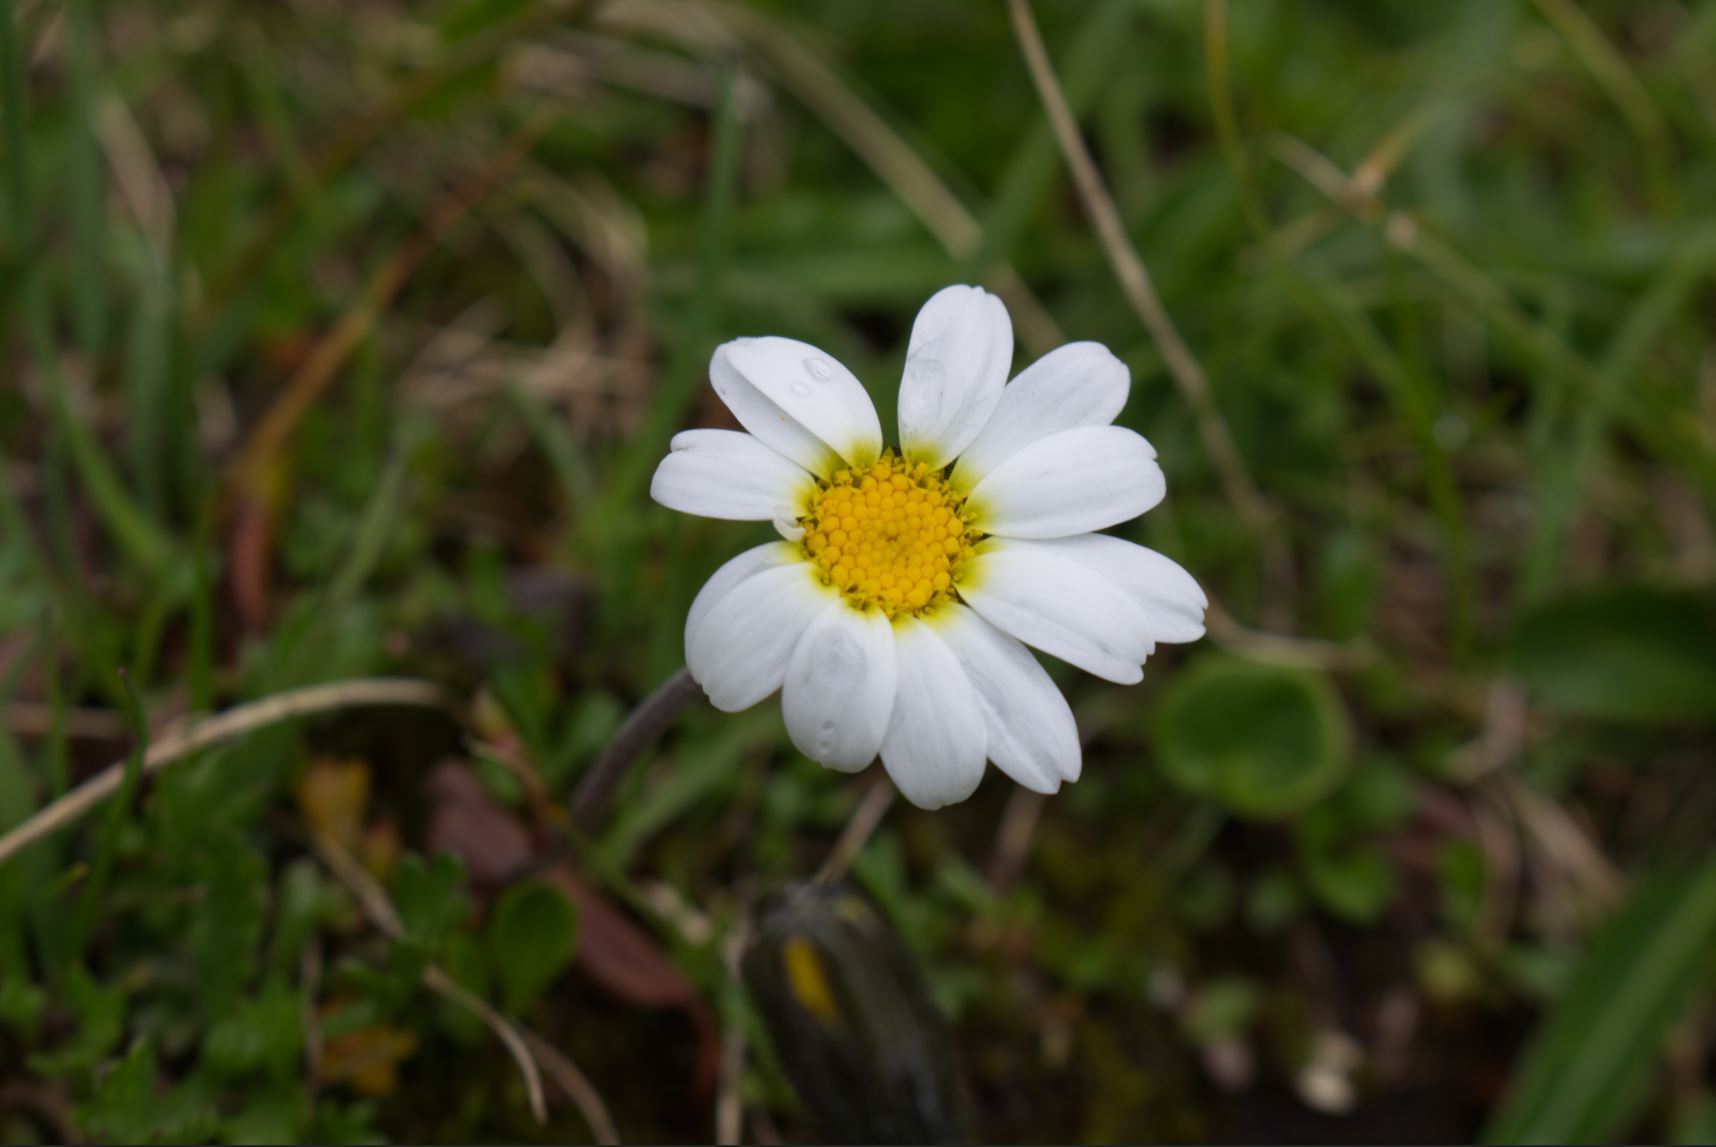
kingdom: Plantae
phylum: Tracheophyta
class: Magnoliopsida
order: Asterales
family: Asteraceae
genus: Leucanthemopsis
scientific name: Leucanthemopsis alpina
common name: Alpine moon daisy
